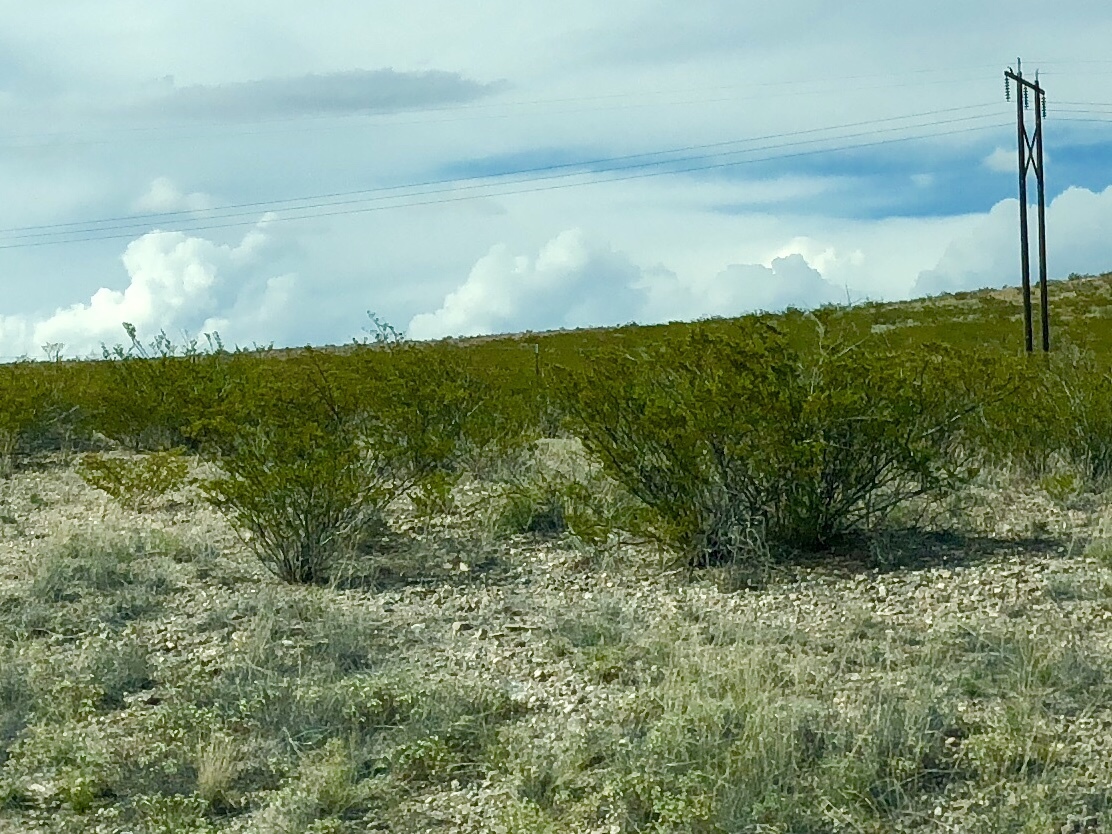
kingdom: Plantae
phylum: Tracheophyta
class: Magnoliopsida
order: Zygophyllales
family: Zygophyllaceae
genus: Larrea
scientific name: Larrea tridentata
